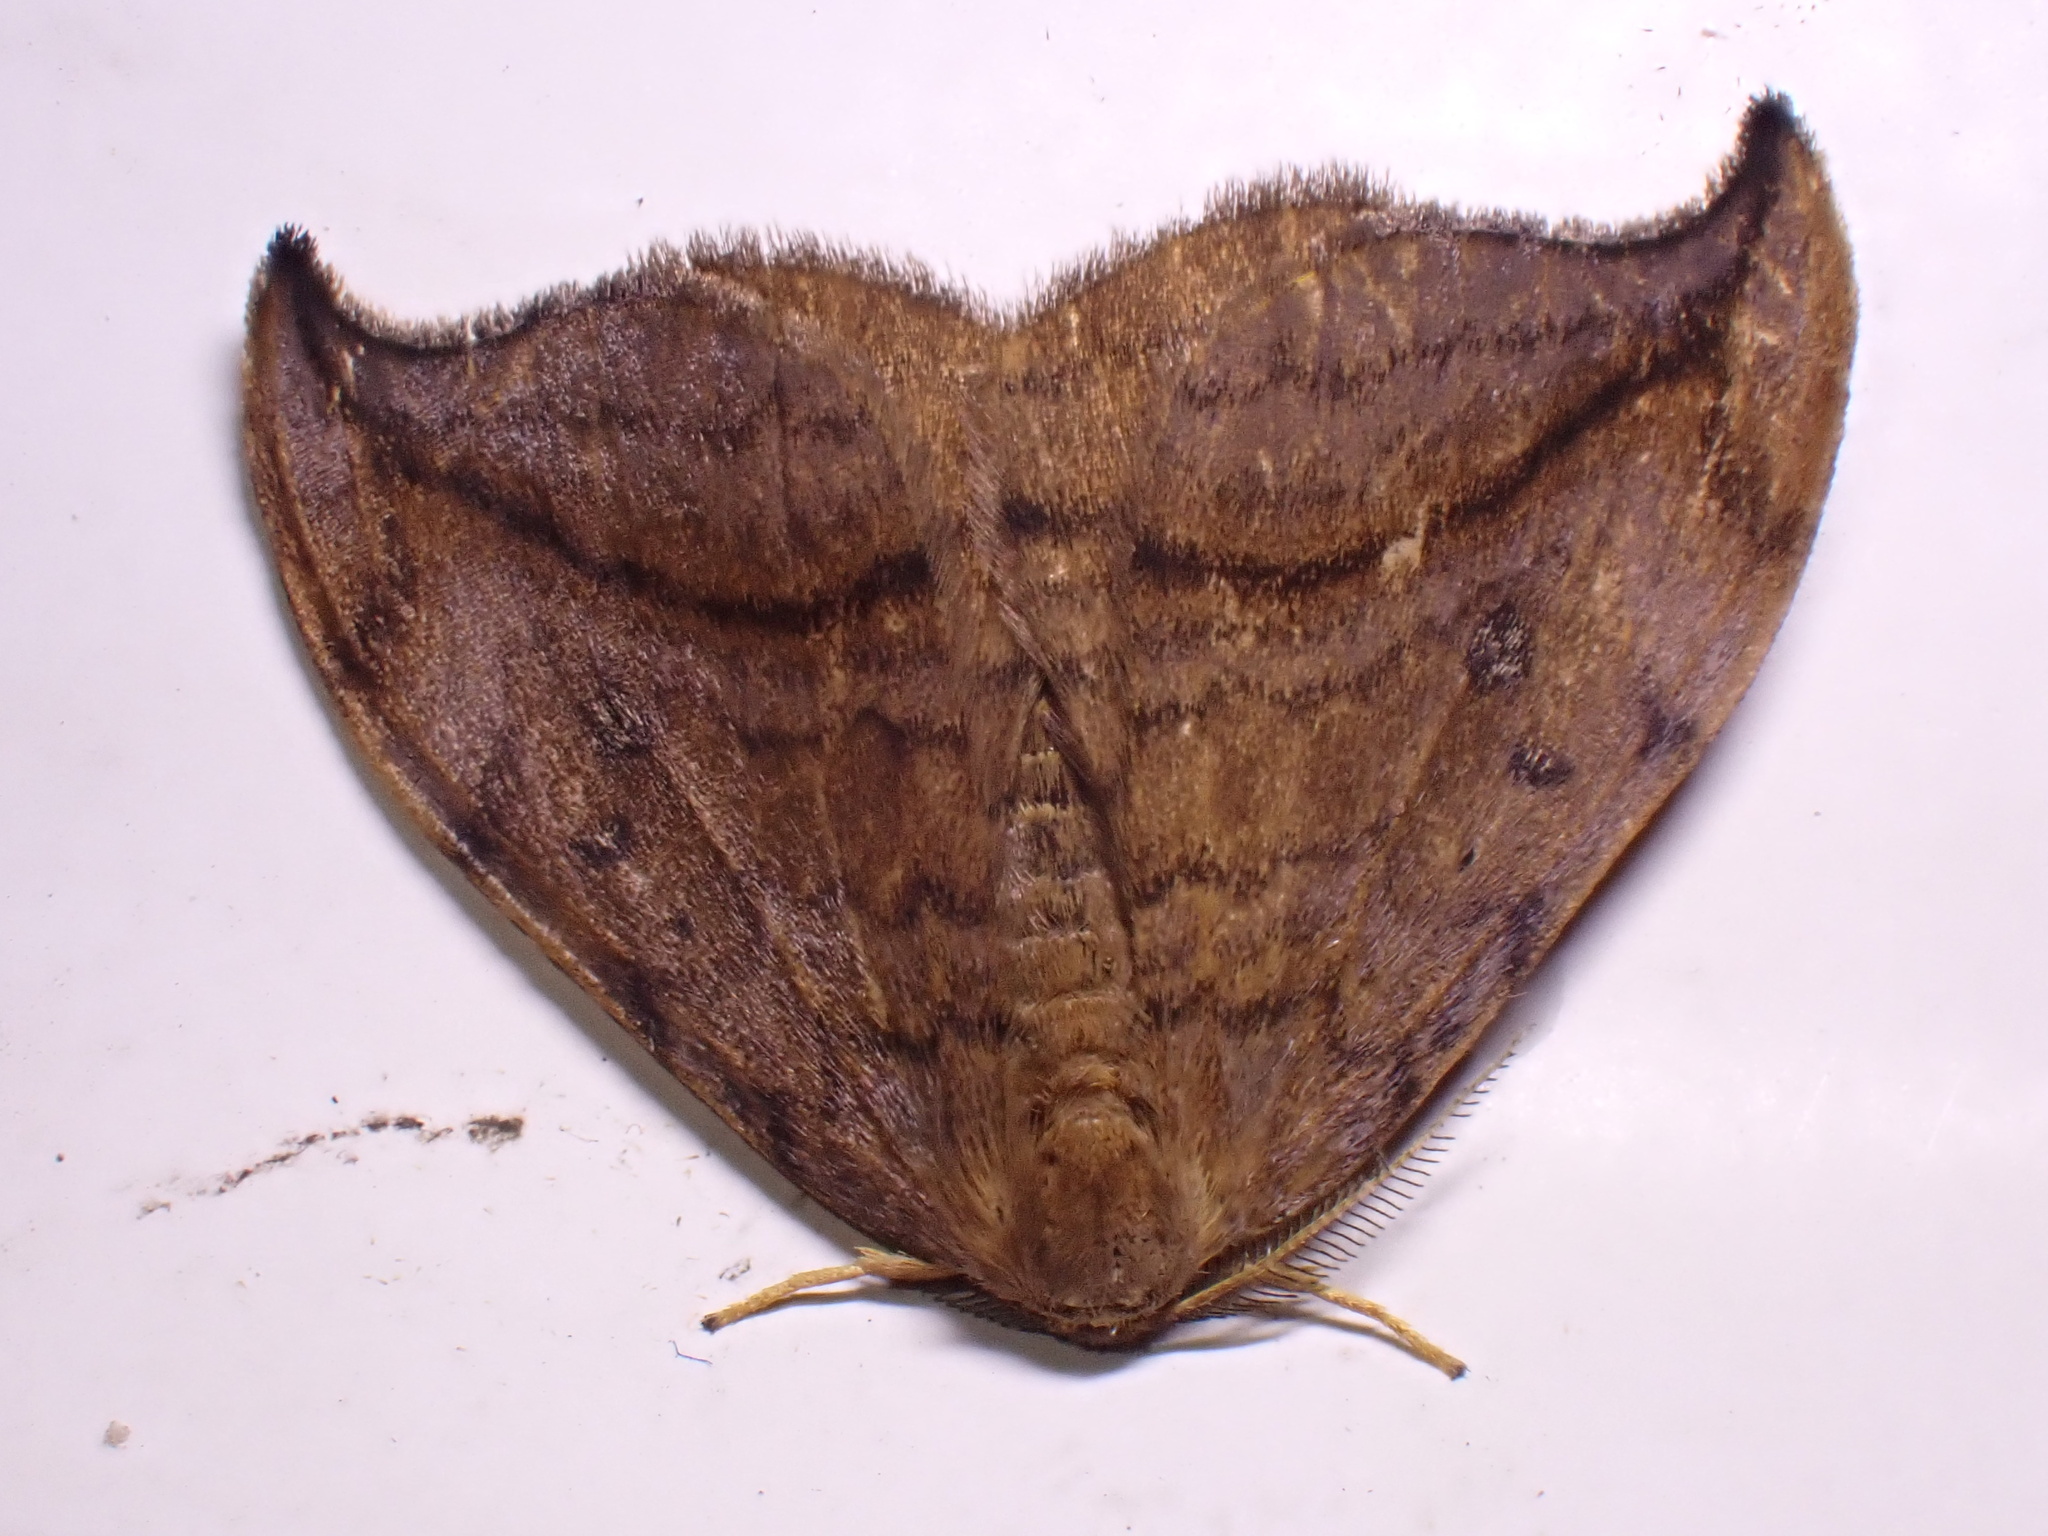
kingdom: Animalia
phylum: Arthropoda
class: Insecta
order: Lepidoptera
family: Drepanidae
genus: Drepana
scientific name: Drepana curvatula
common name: Dusky hook-tip
